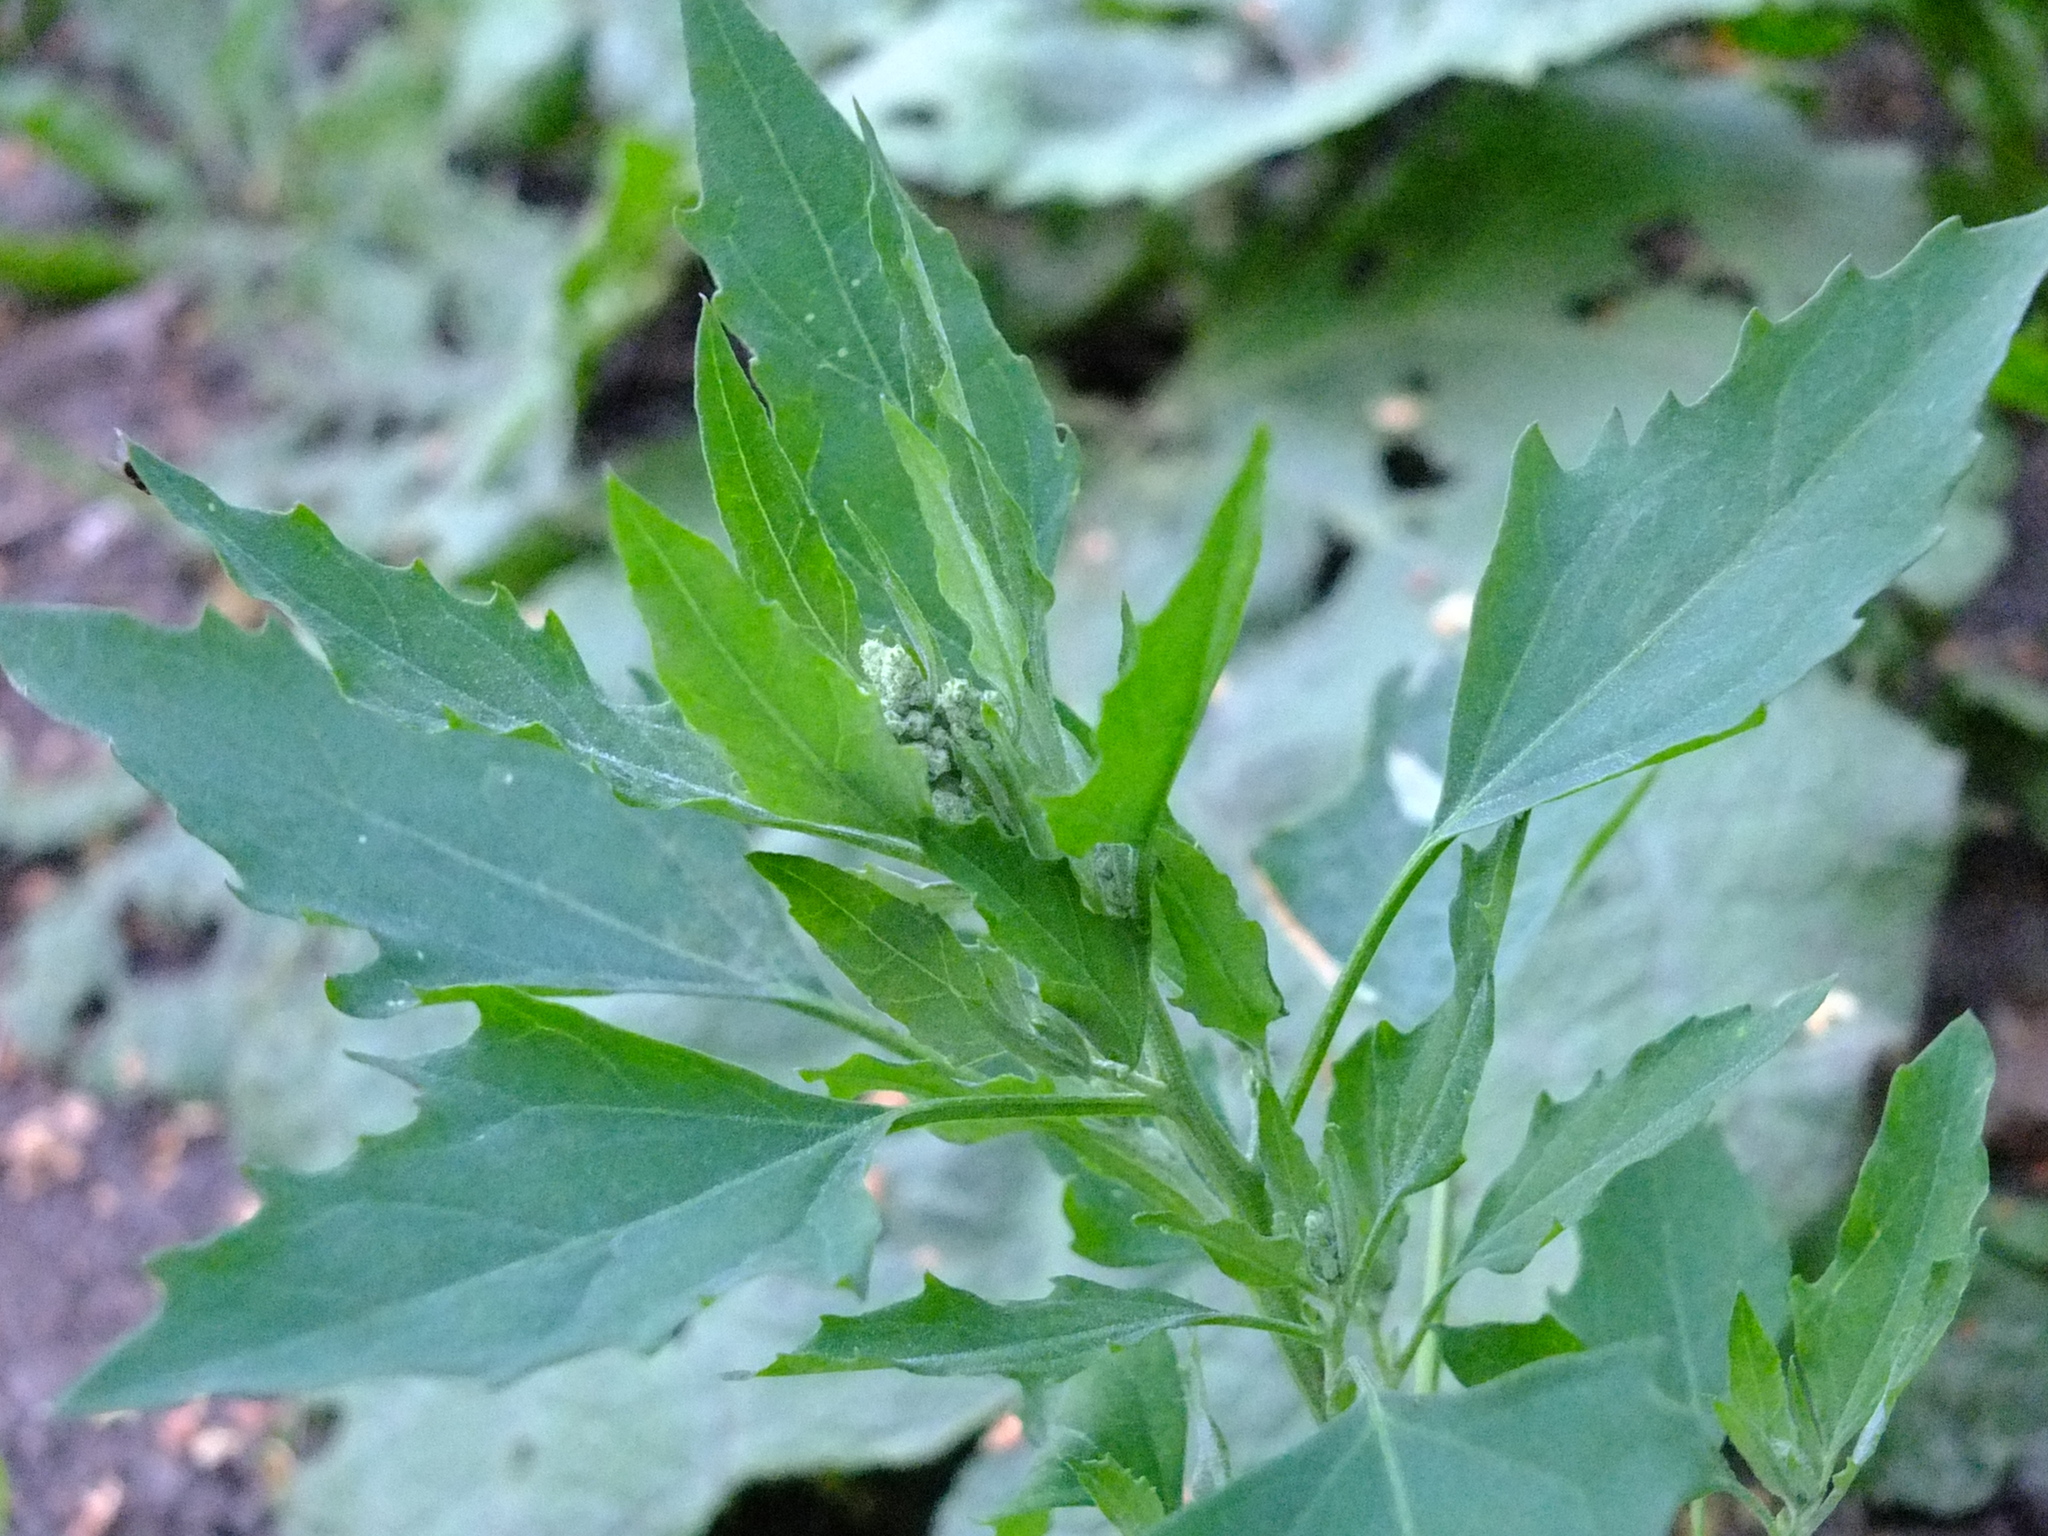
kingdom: Plantae
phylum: Tracheophyta
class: Magnoliopsida
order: Caryophyllales
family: Amaranthaceae
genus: Chenopodium
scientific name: Chenopodium album
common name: Fat-hen
